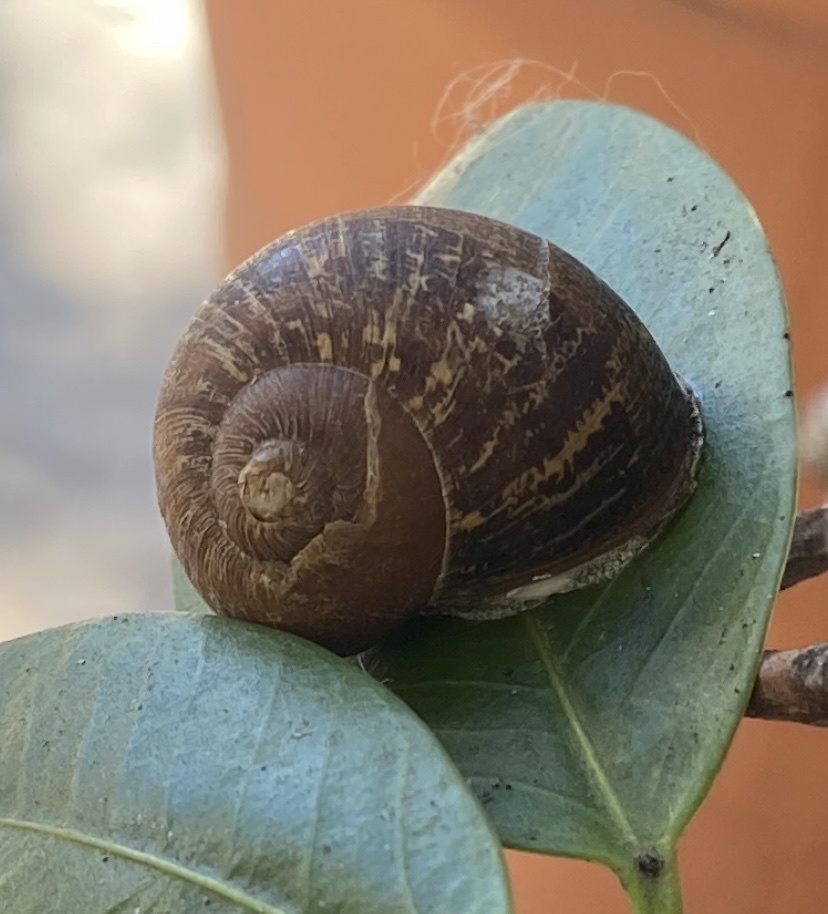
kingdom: Animalia
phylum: Mollusca
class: Gastropoda
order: Stylommatophora
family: Helicidae
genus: Cornu
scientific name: Cornu aspersum
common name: Brown garden snail
